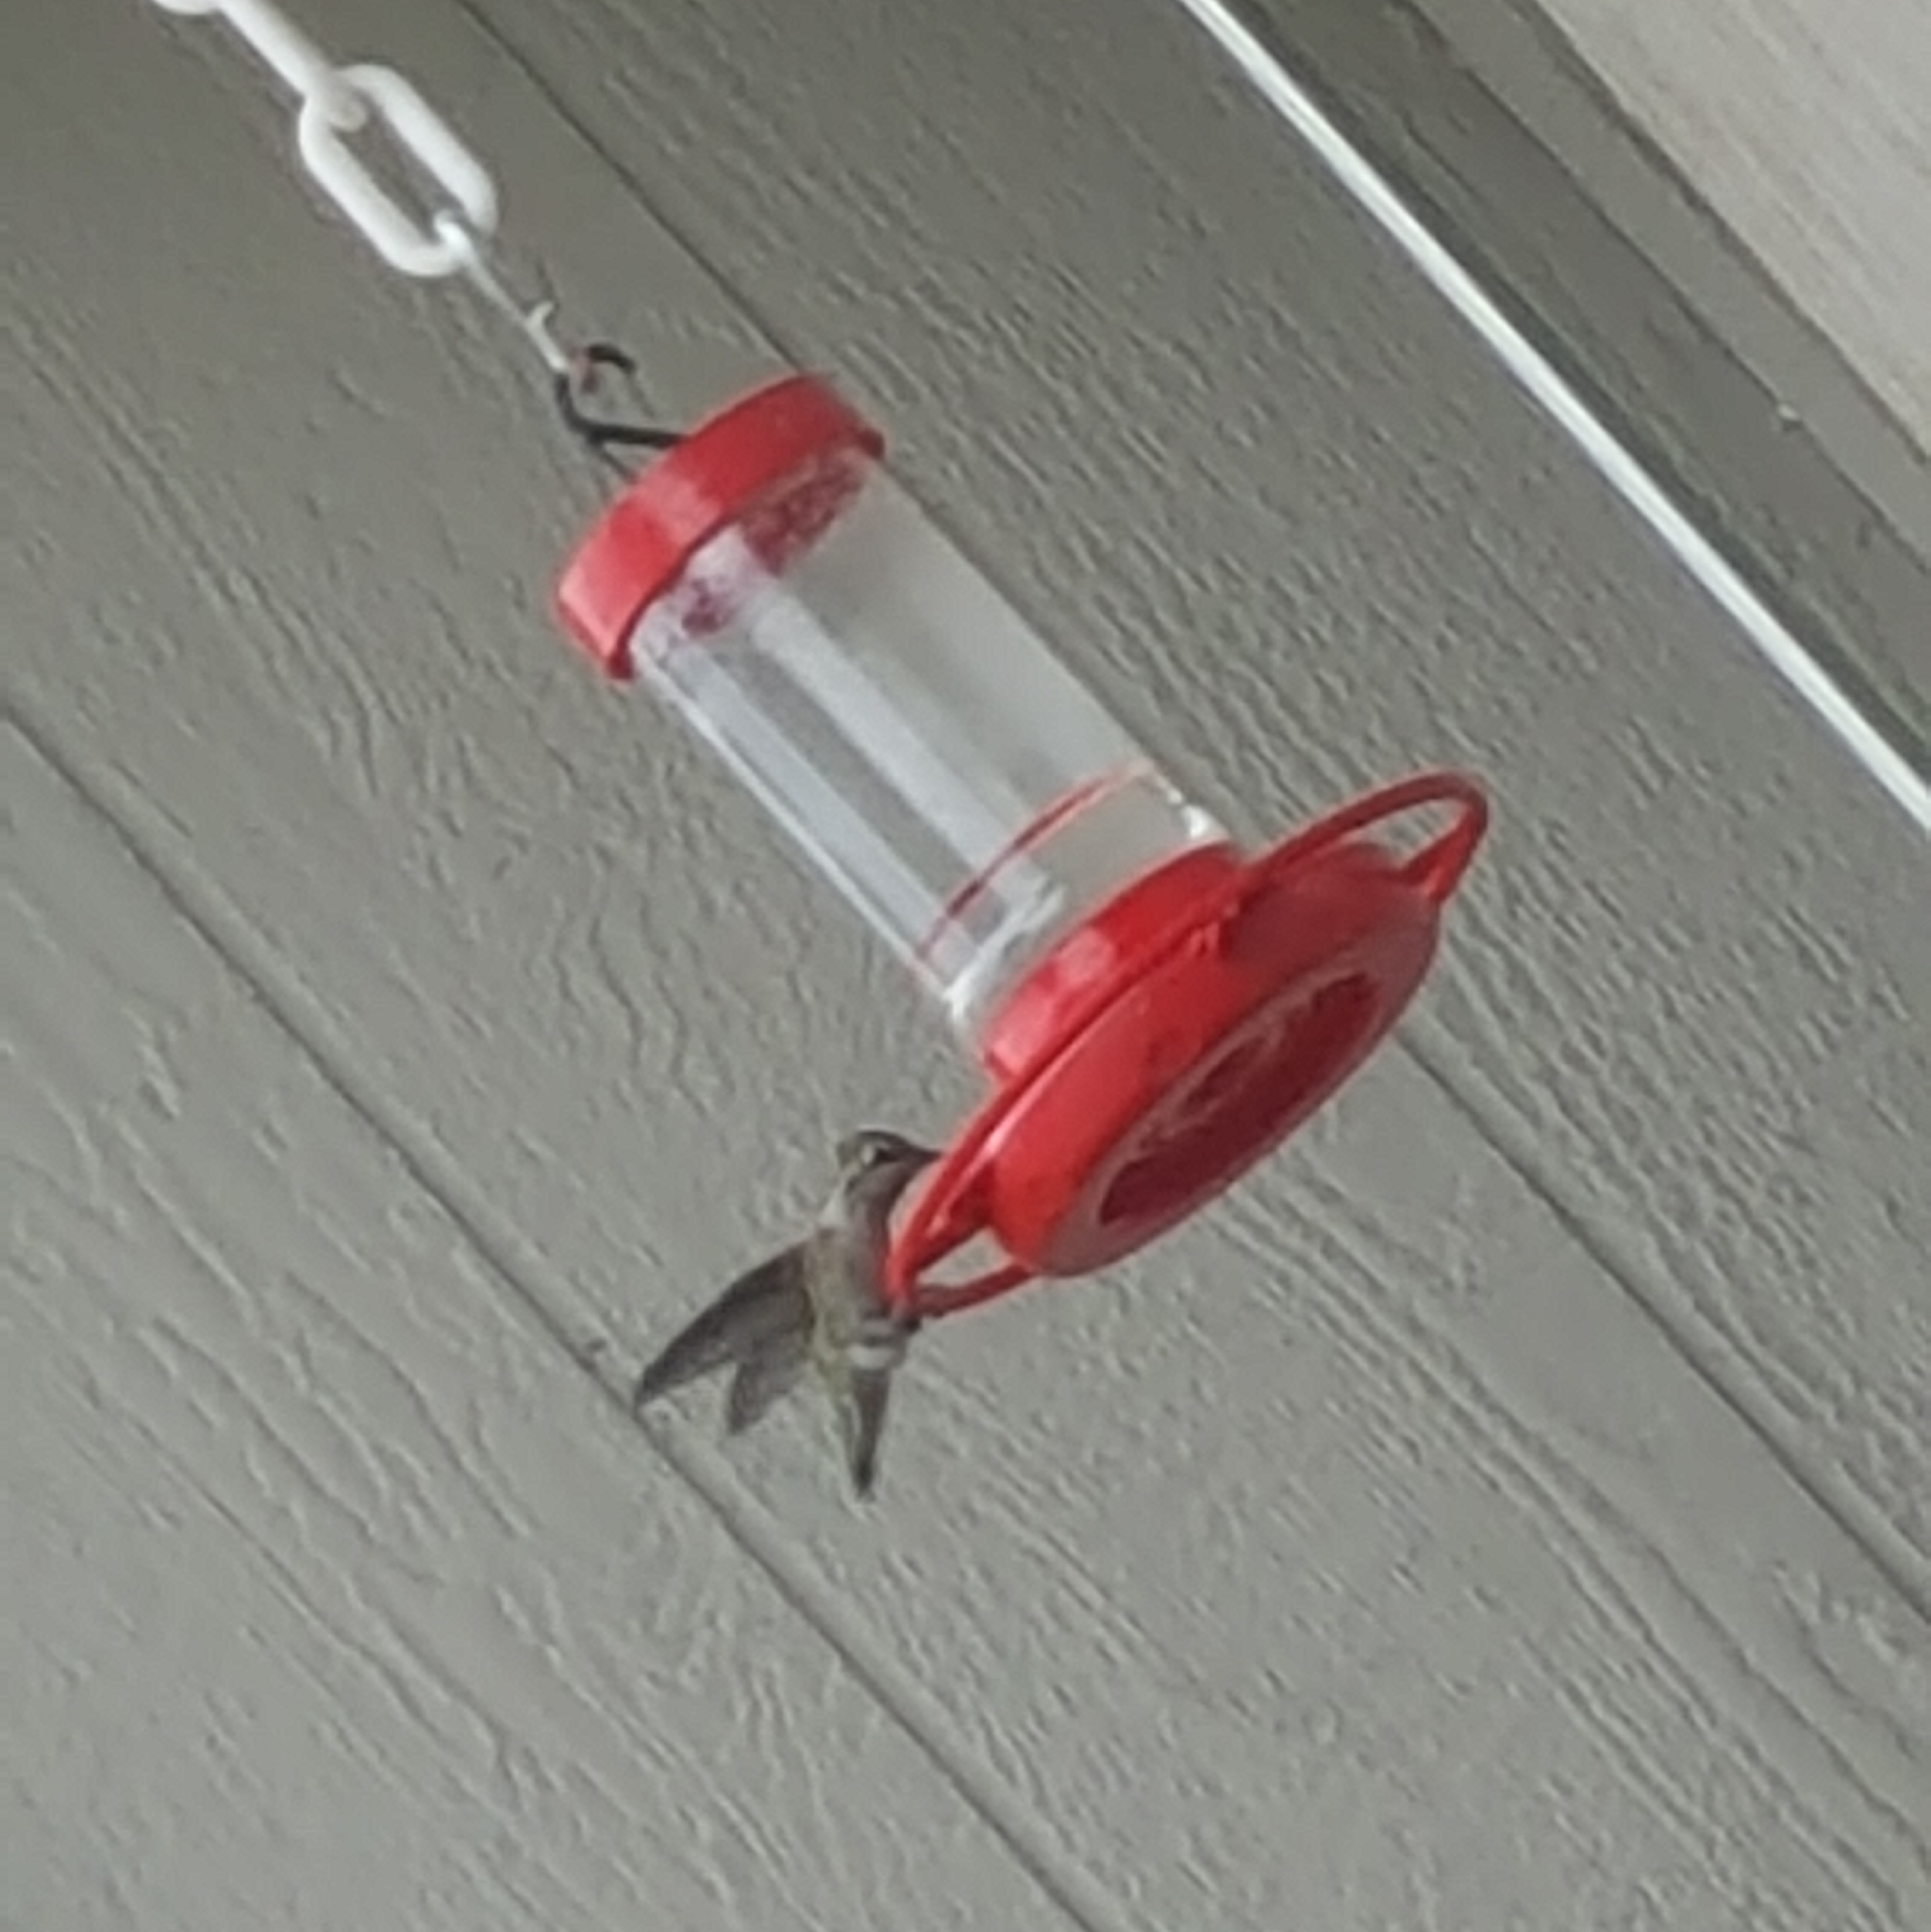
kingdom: Animalia
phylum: Chordata
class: Aves
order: Apodiformes
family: Trochilidae
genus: Calypte
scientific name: Calypte anna
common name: Anna's hummingbird
